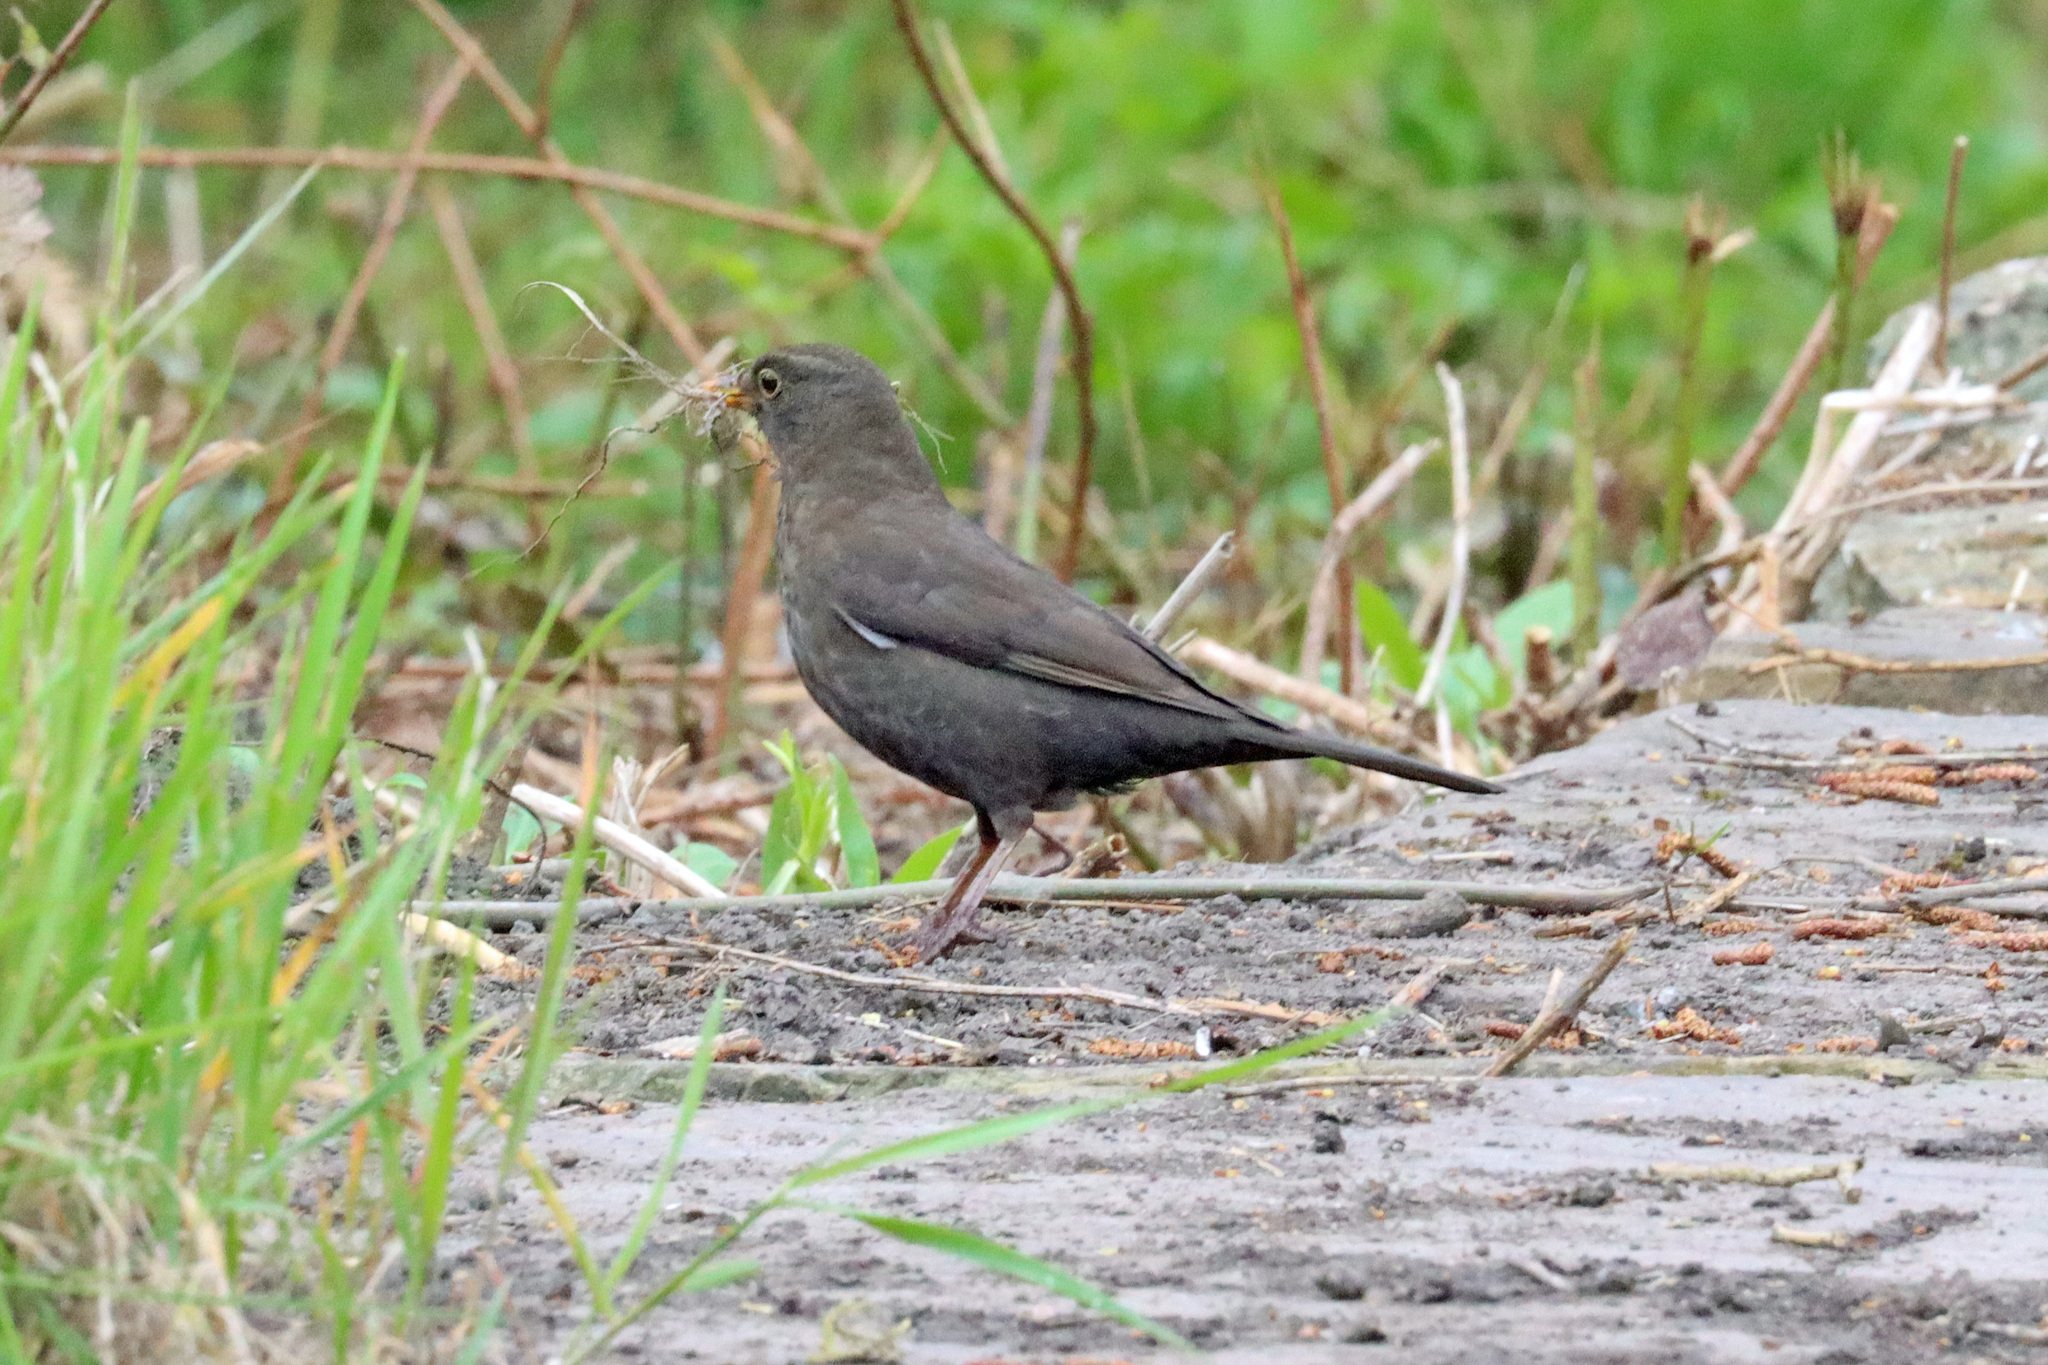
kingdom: Animalia
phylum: Chordata
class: Aves
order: Passeriformes
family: Turdidae
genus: Turdus
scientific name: Turdus merula
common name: Common blackbird
